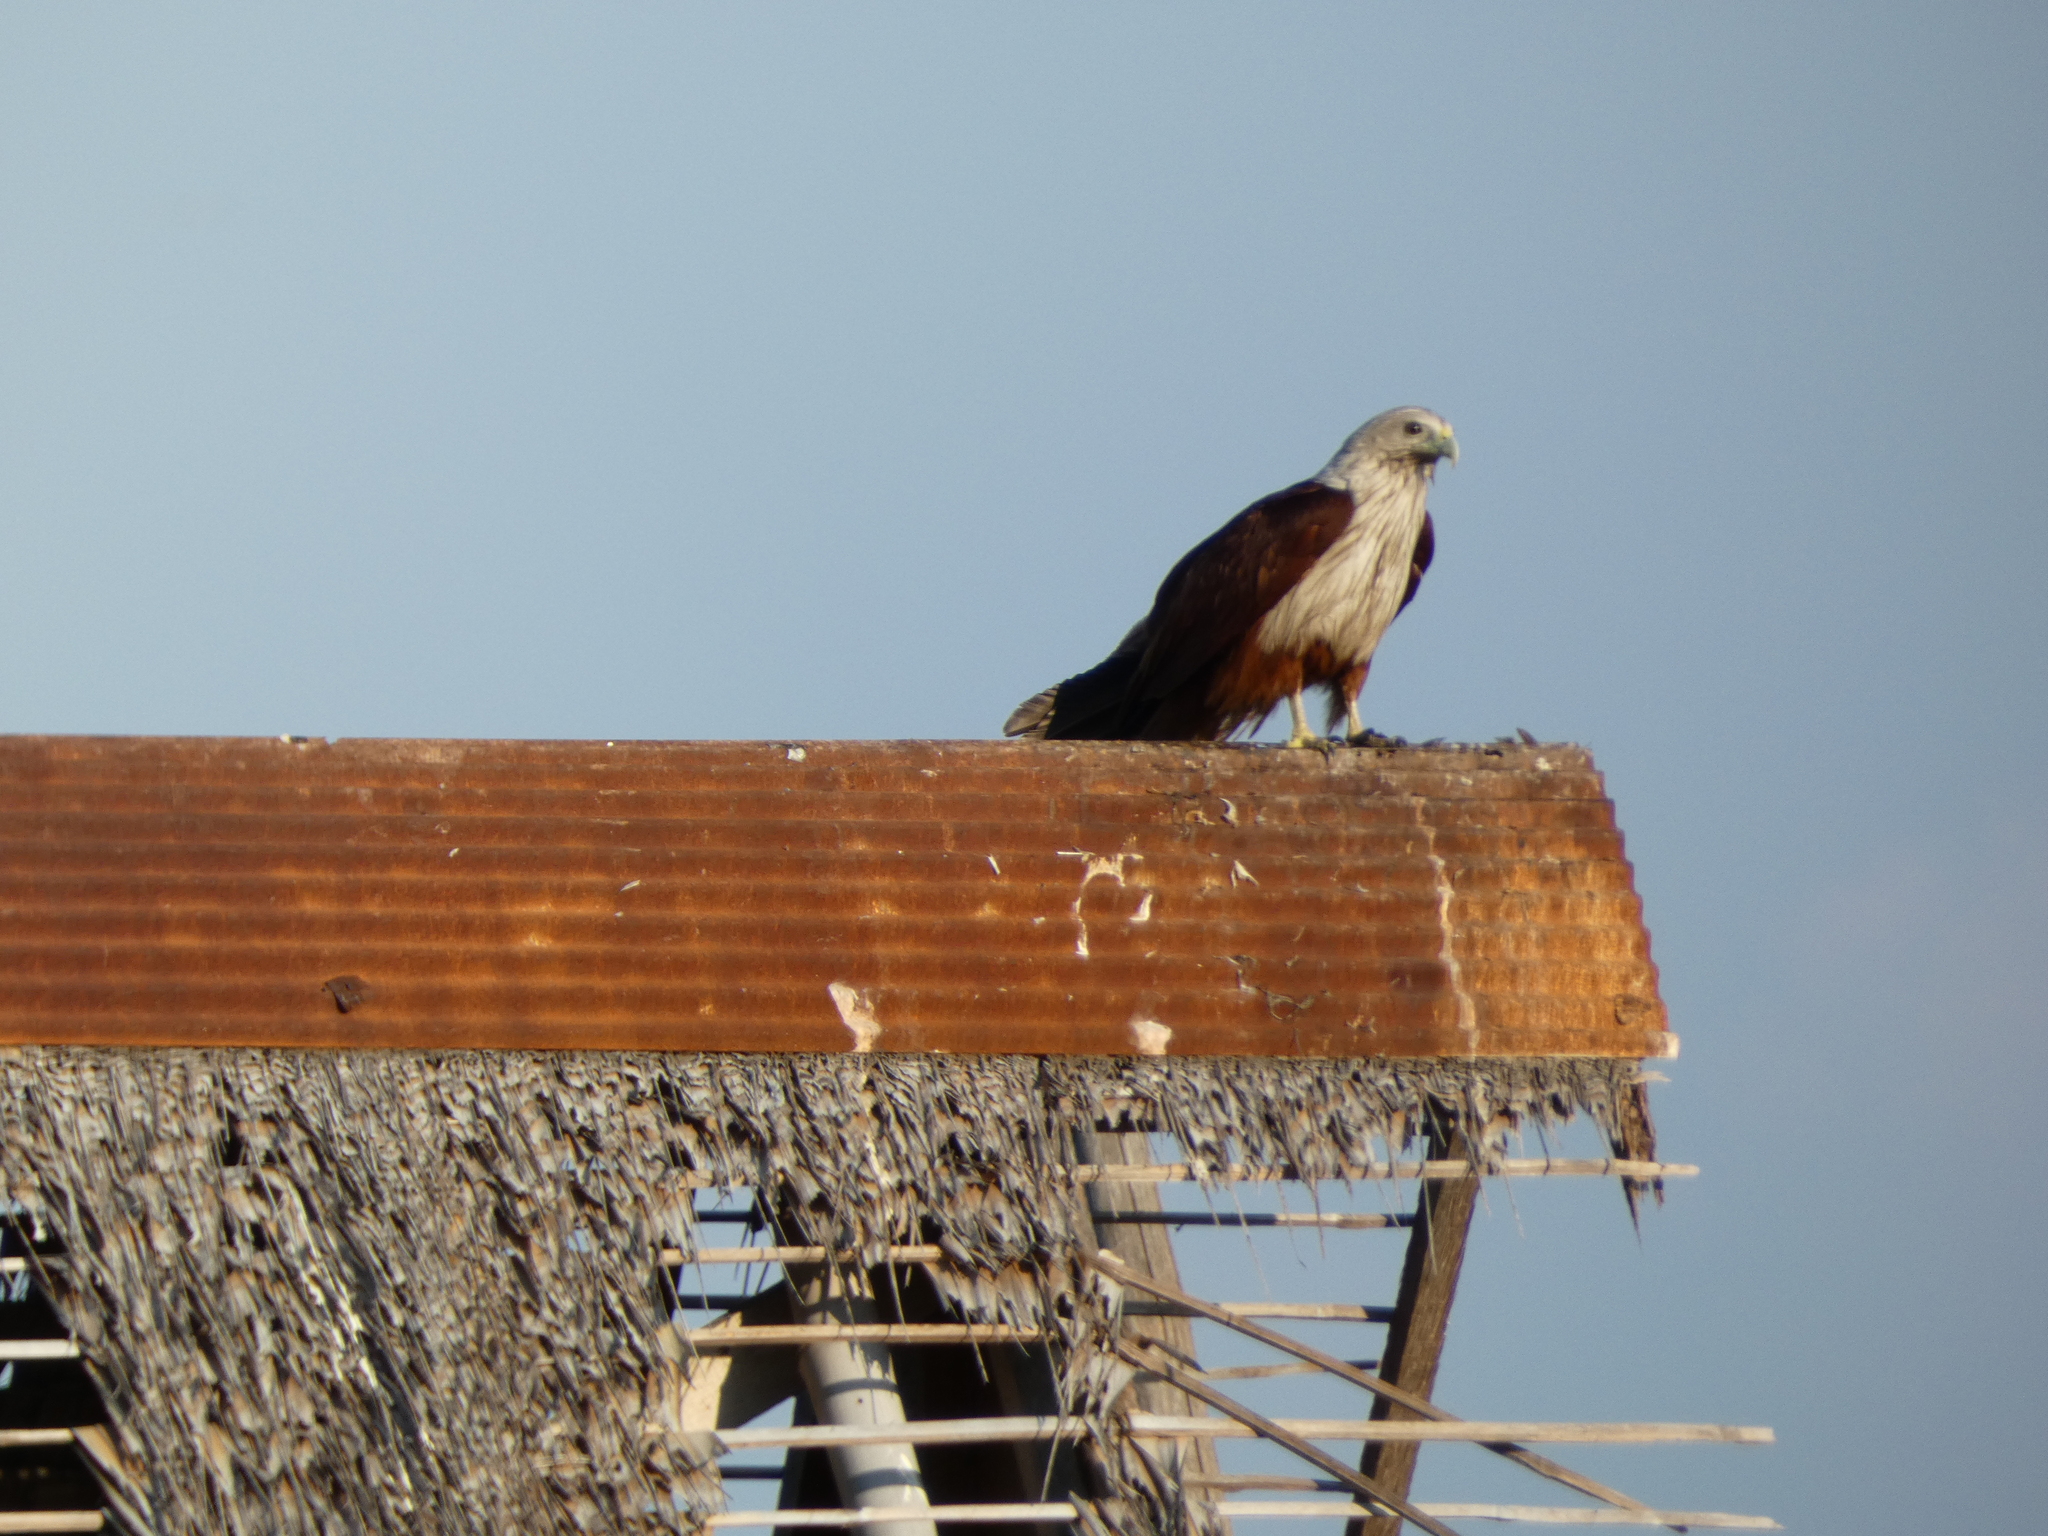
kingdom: Animalia
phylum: Chordata
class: Aves
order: Accipitriformes
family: Accipitridae
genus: Haliastur
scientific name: Haliastur indus
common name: Brahminy kite
